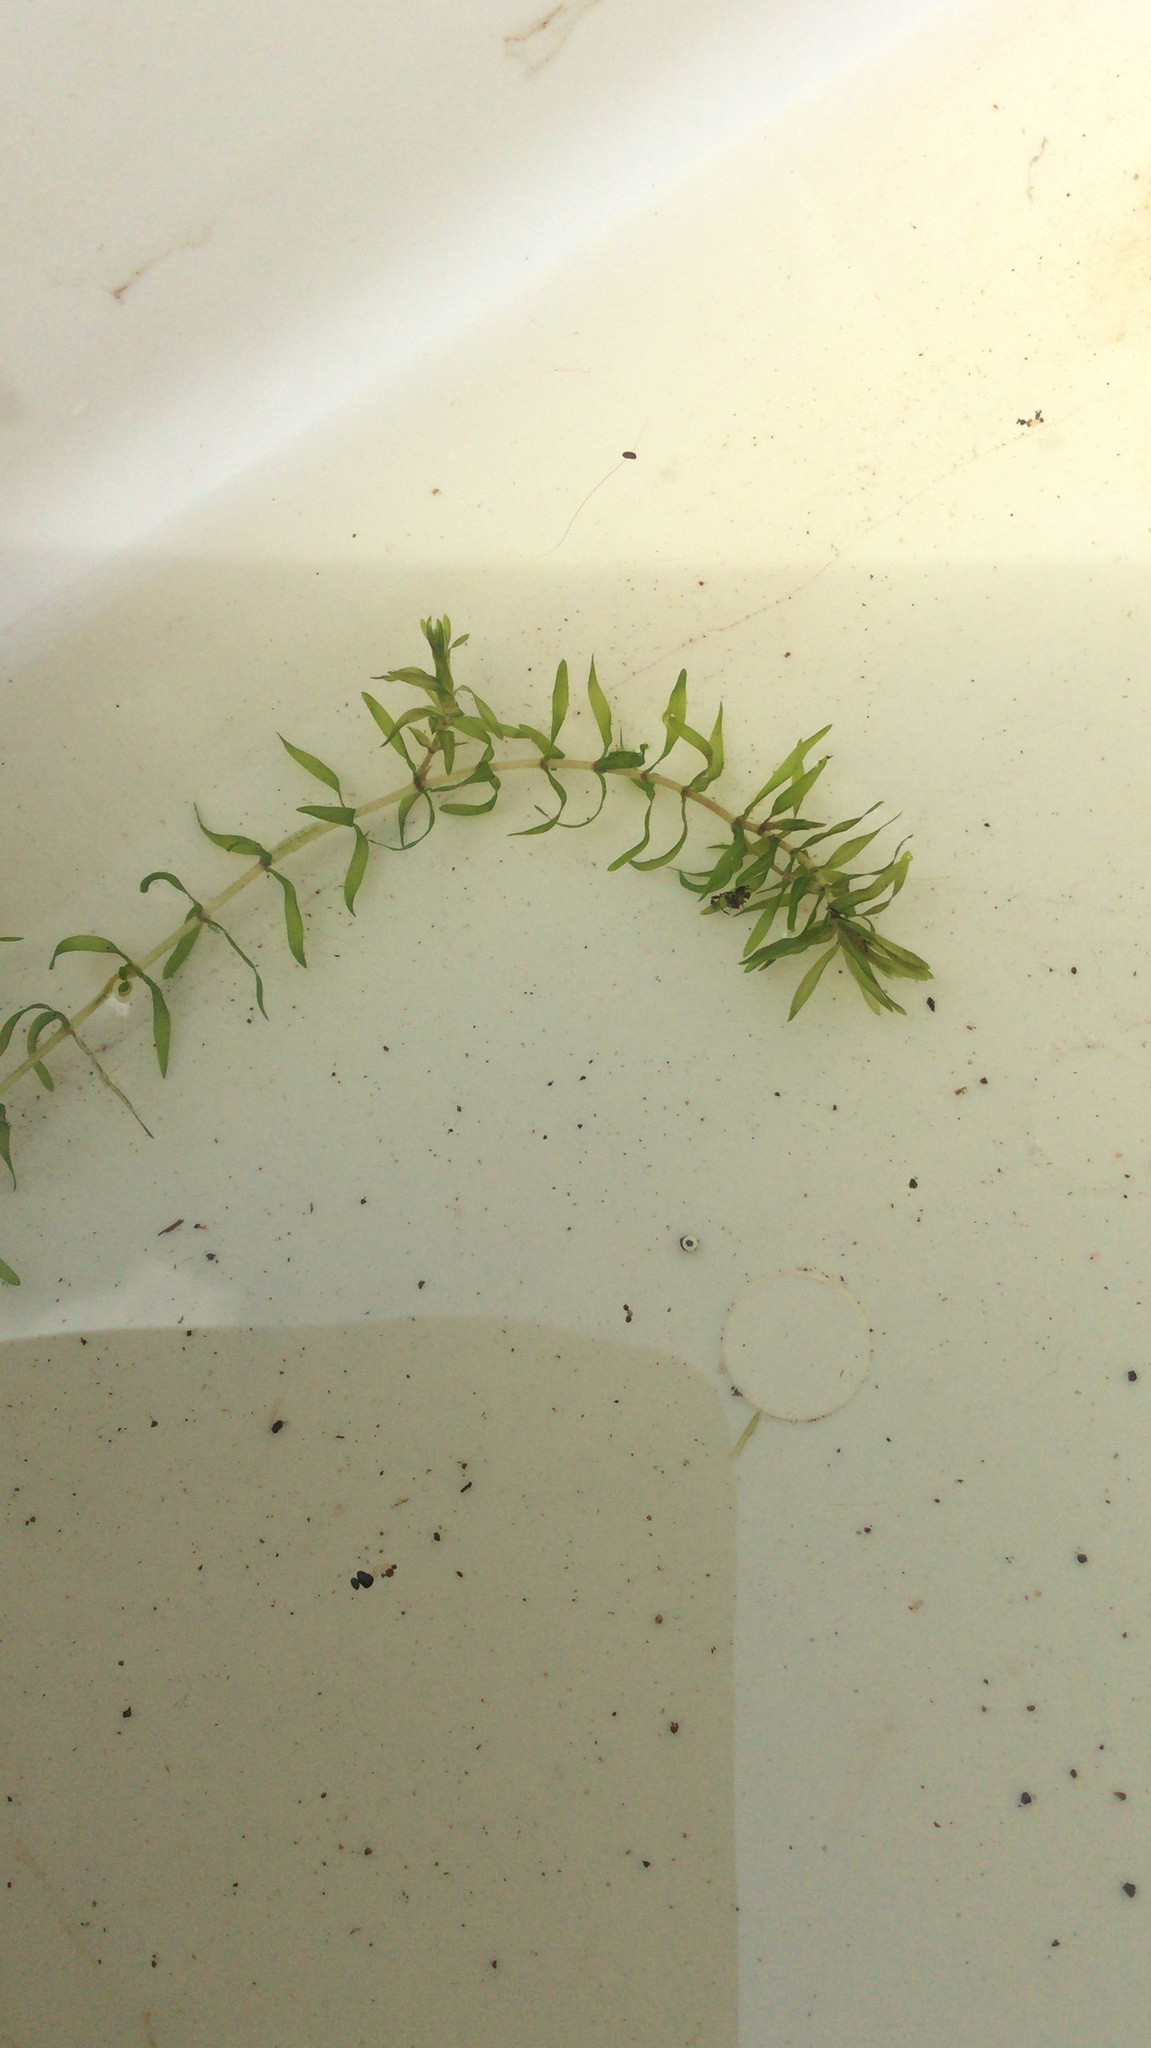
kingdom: Plantae
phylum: Tracheophyta
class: Liliopsida
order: Alismatales
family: Hydrocharitaceae
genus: Elodea
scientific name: Elodea nuttallii
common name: Nuttall's waterweed
